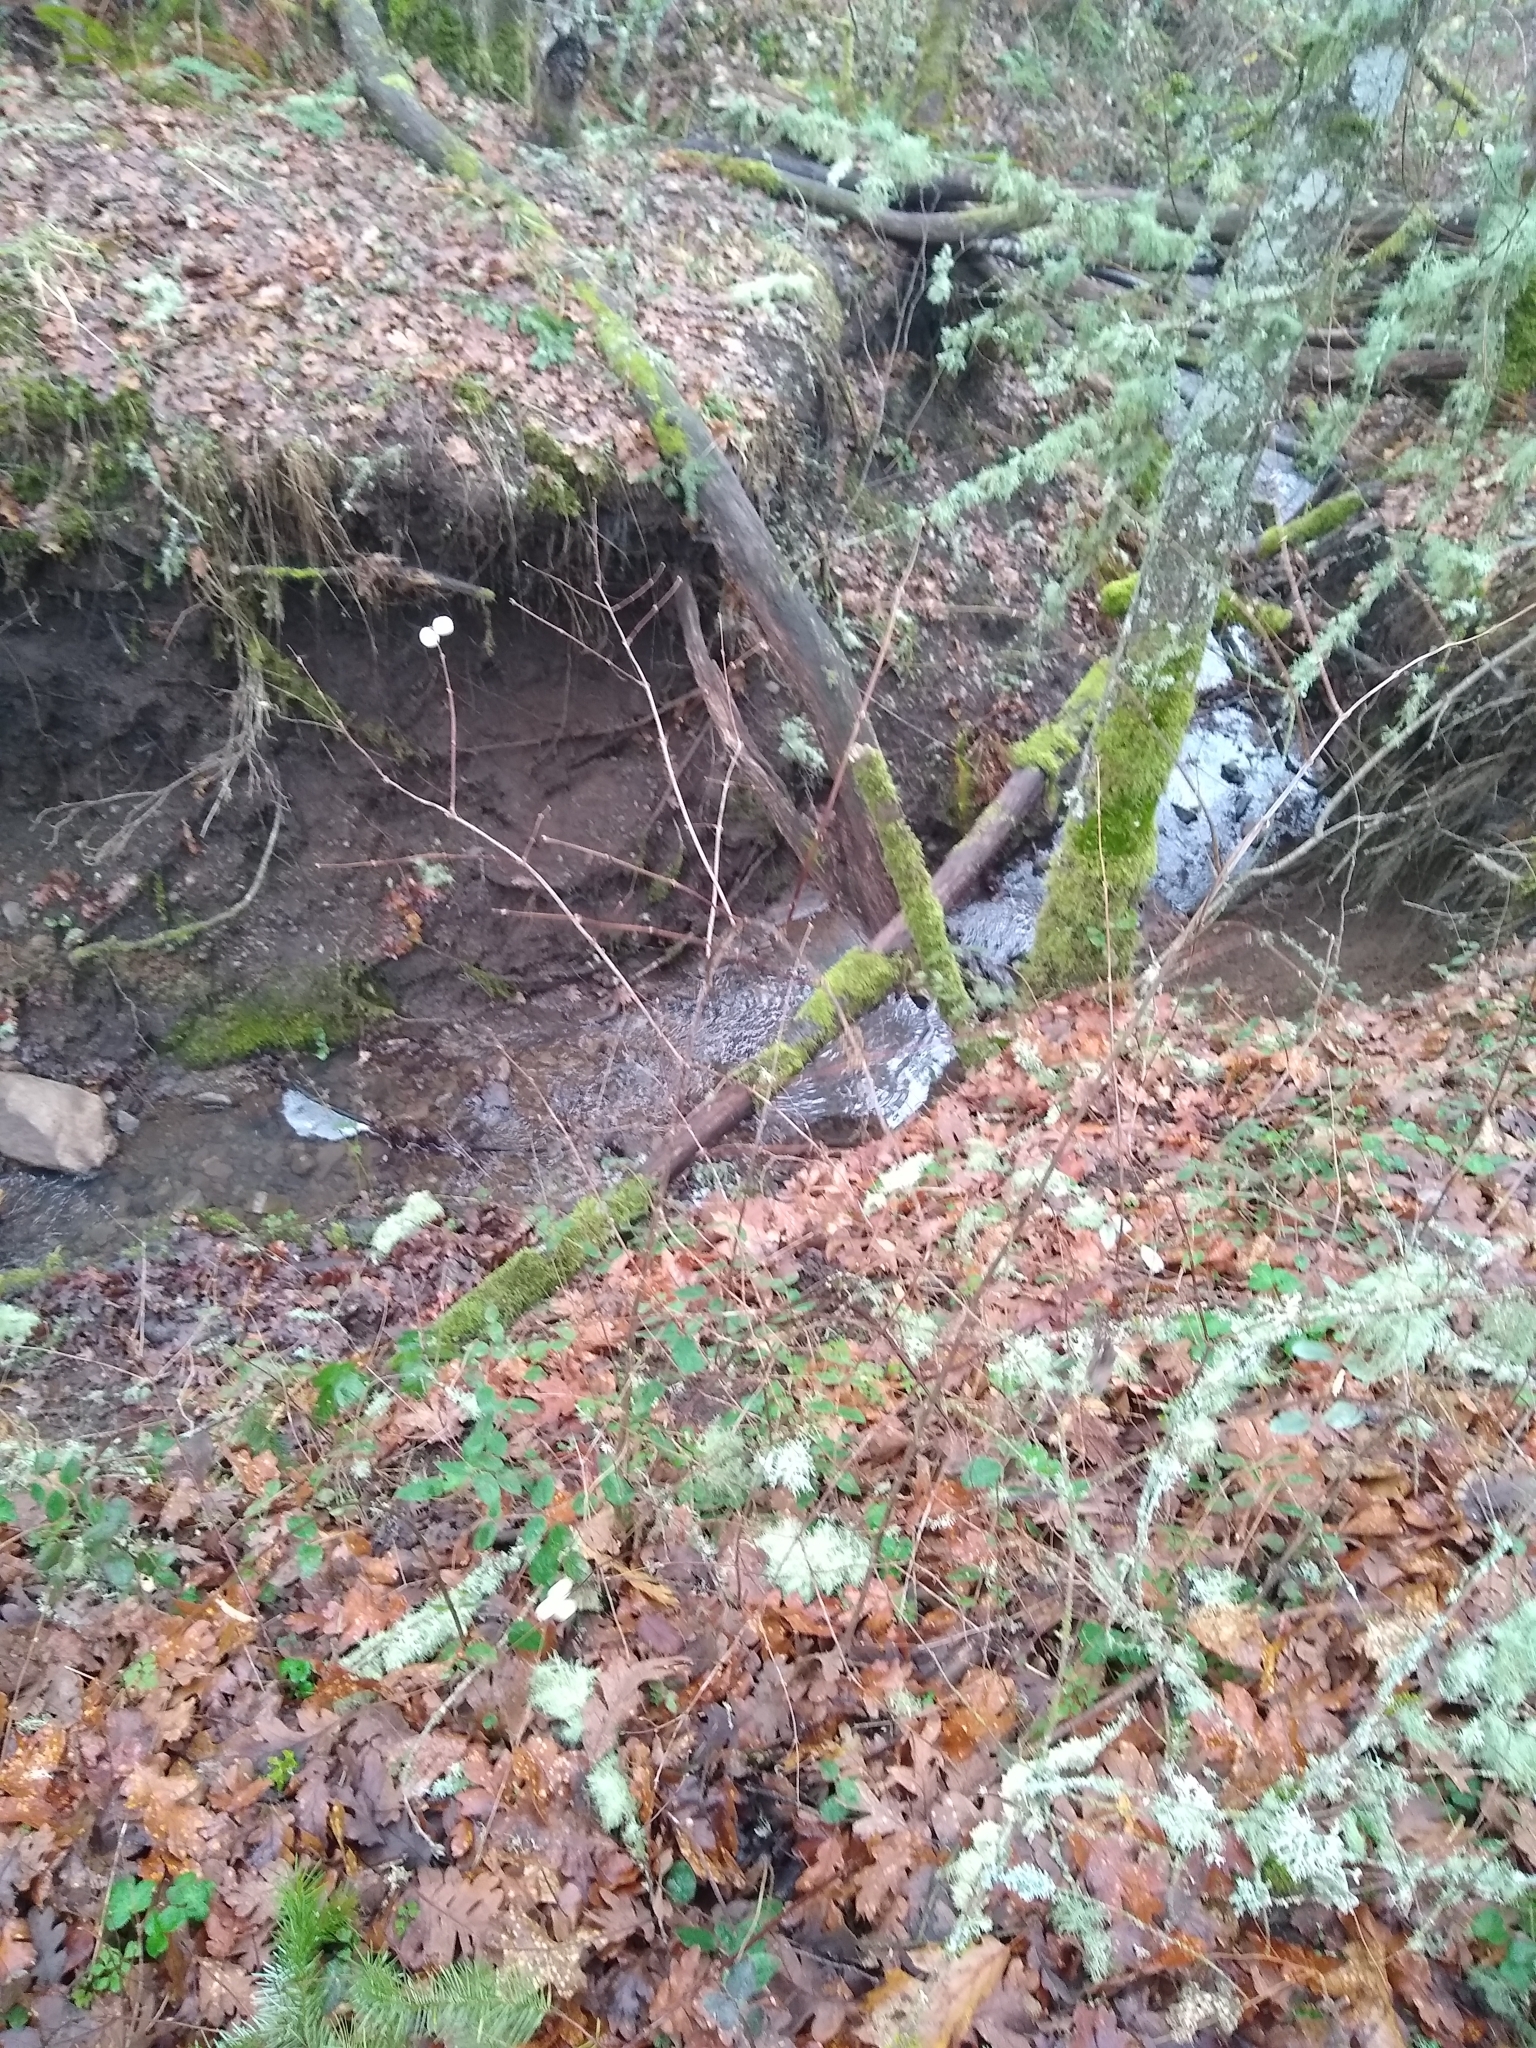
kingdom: Plantae
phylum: Tracheophyta
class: Magnoliopsida
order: Dipsacales
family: Caprifoliaceae
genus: Symphoricarpos
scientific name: Symphoricarpos albus
